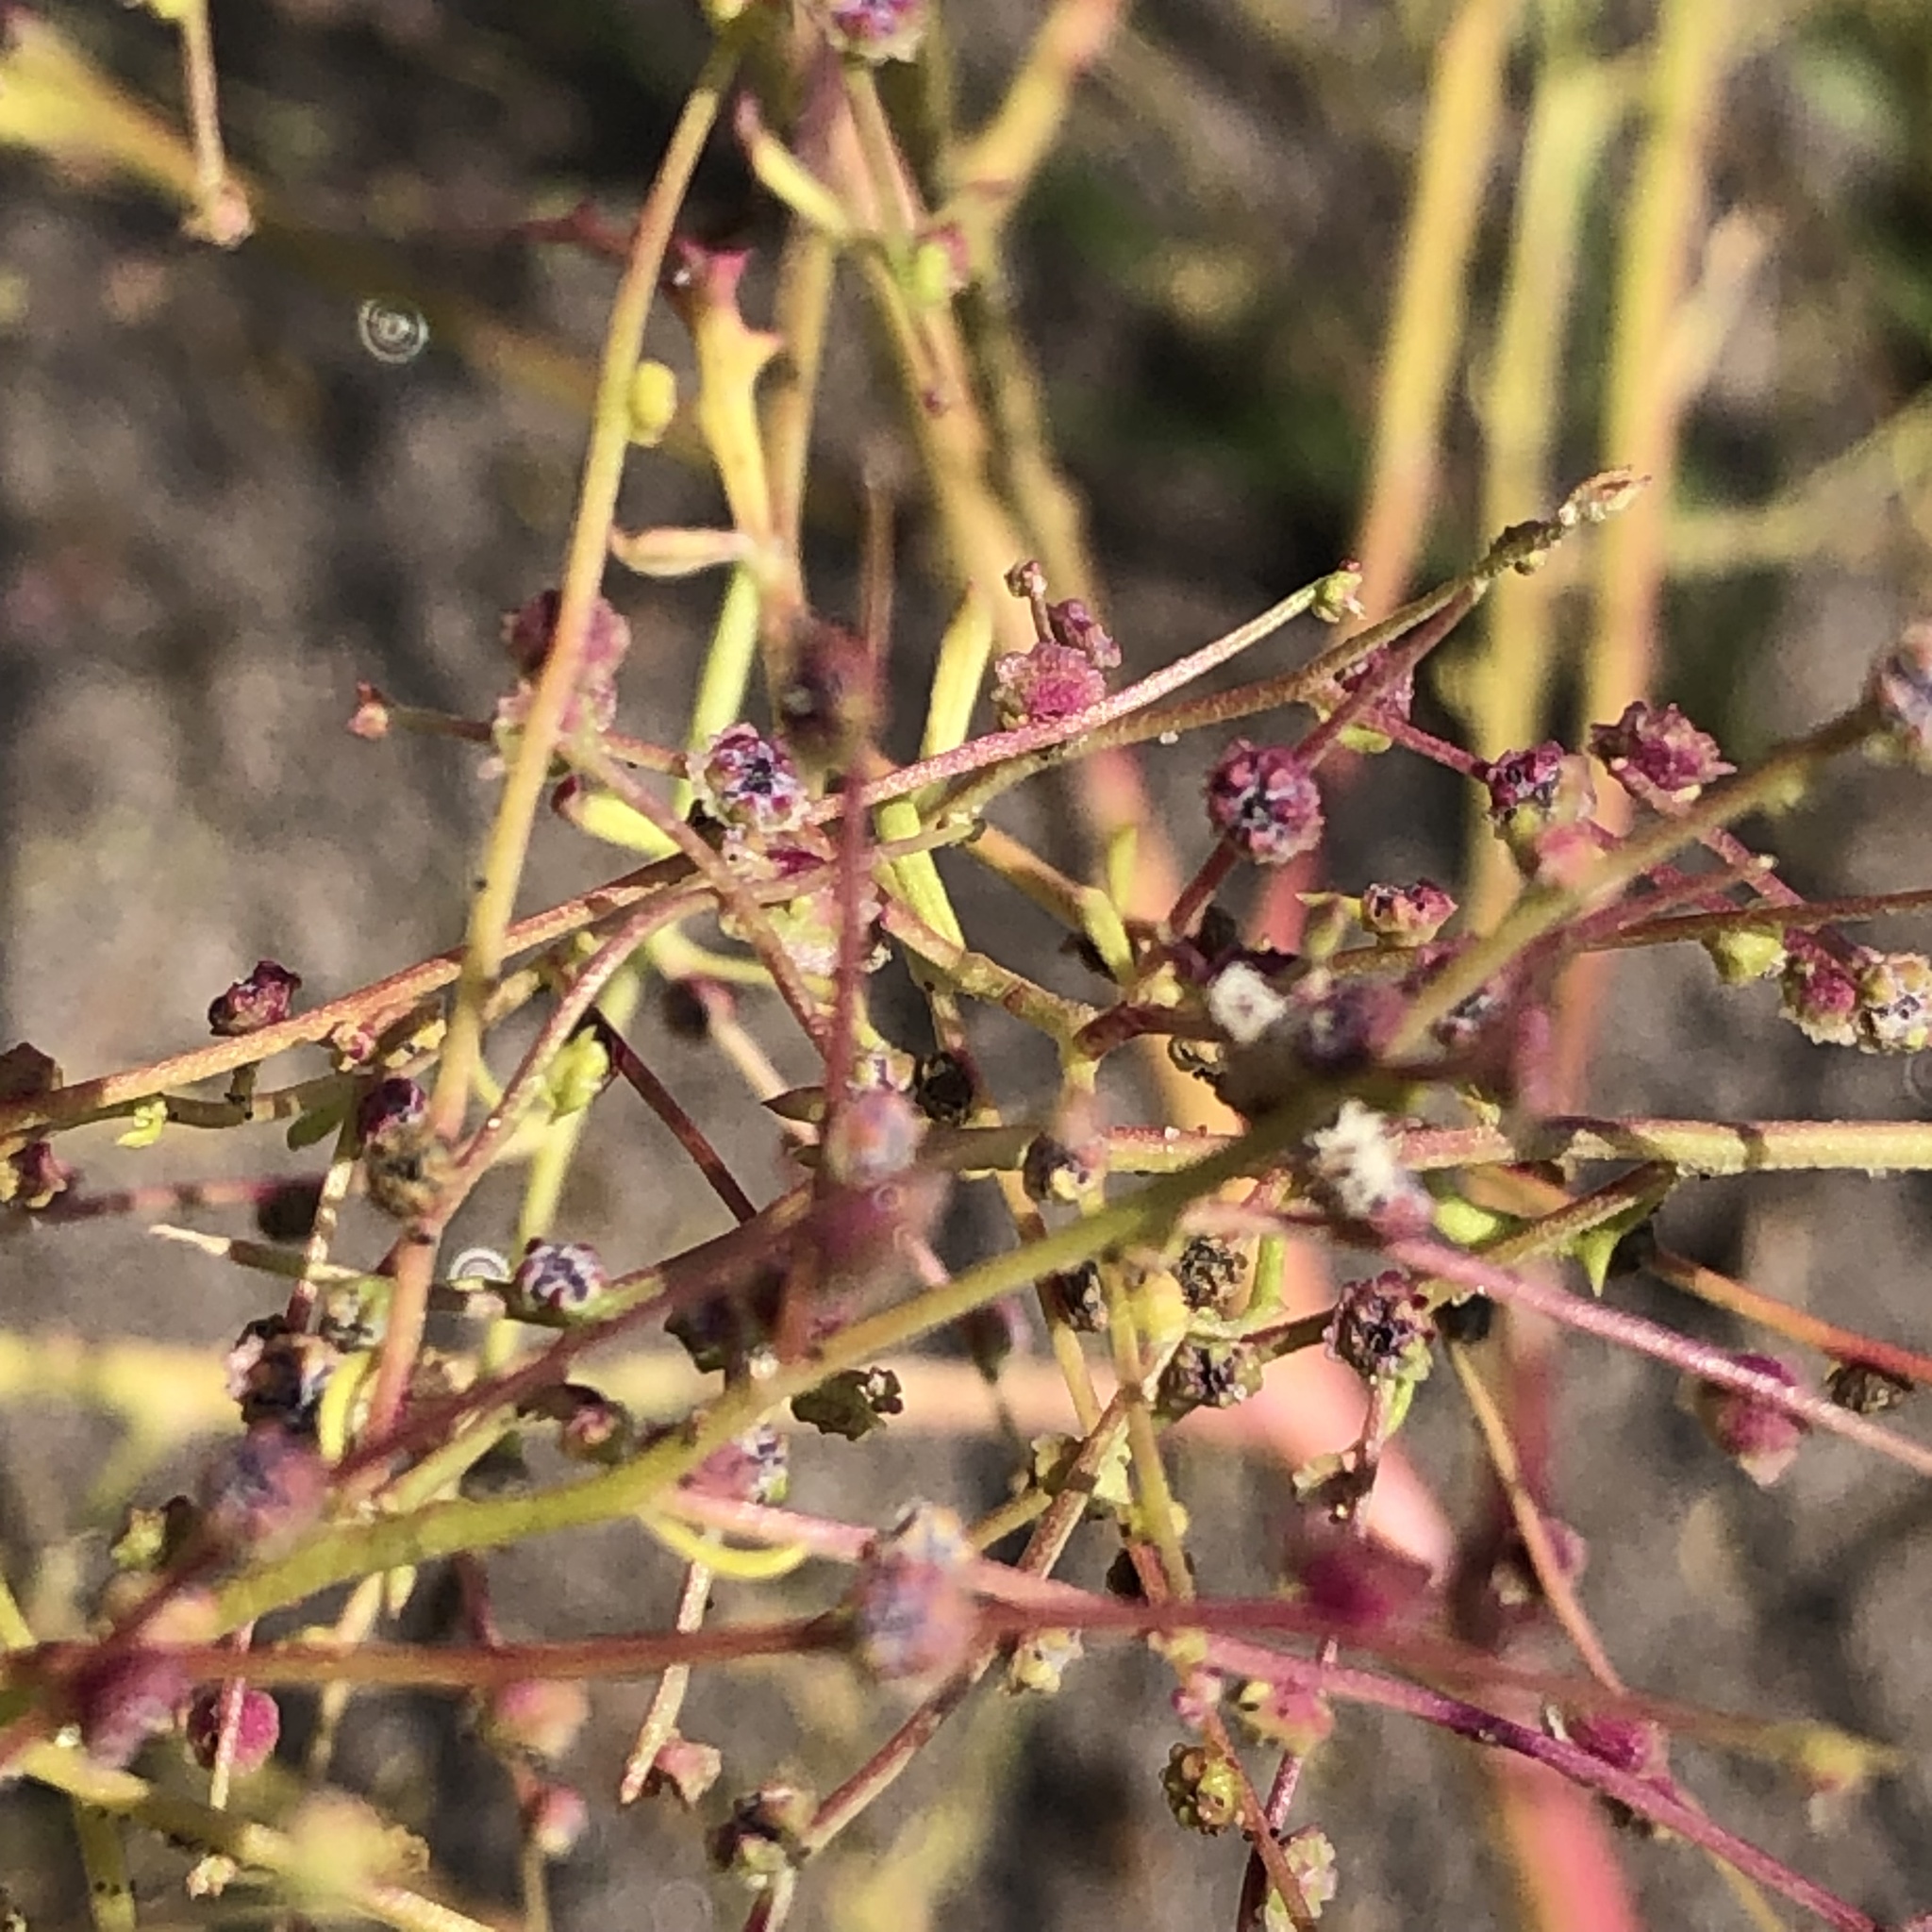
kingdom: Plantae
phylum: Tracheophyta
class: Magnoliopsida
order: Caryophyllales
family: Amaranthaceae
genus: Dysphania
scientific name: Dysphania atriplicifolia
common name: Plains tumbleweed
